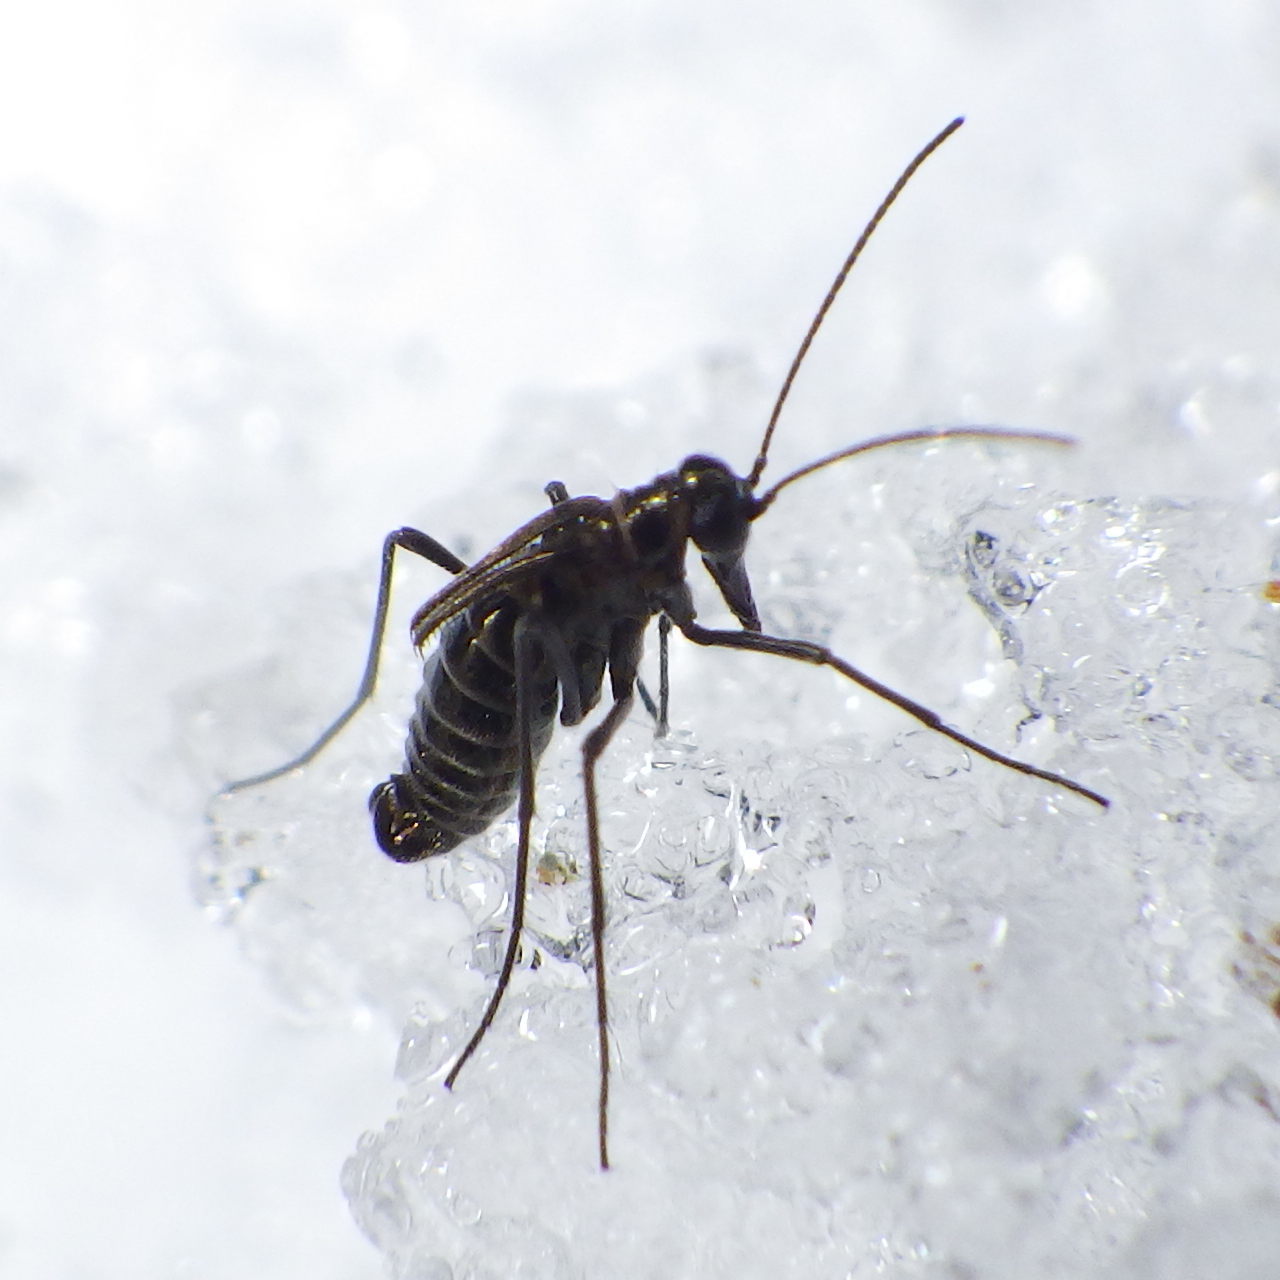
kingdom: Animalia
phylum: Arthropoda
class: Insecta
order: Mecoptera
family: Boreidae
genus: Boreus
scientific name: Boreus brumalis
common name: Mid-winter boreus
